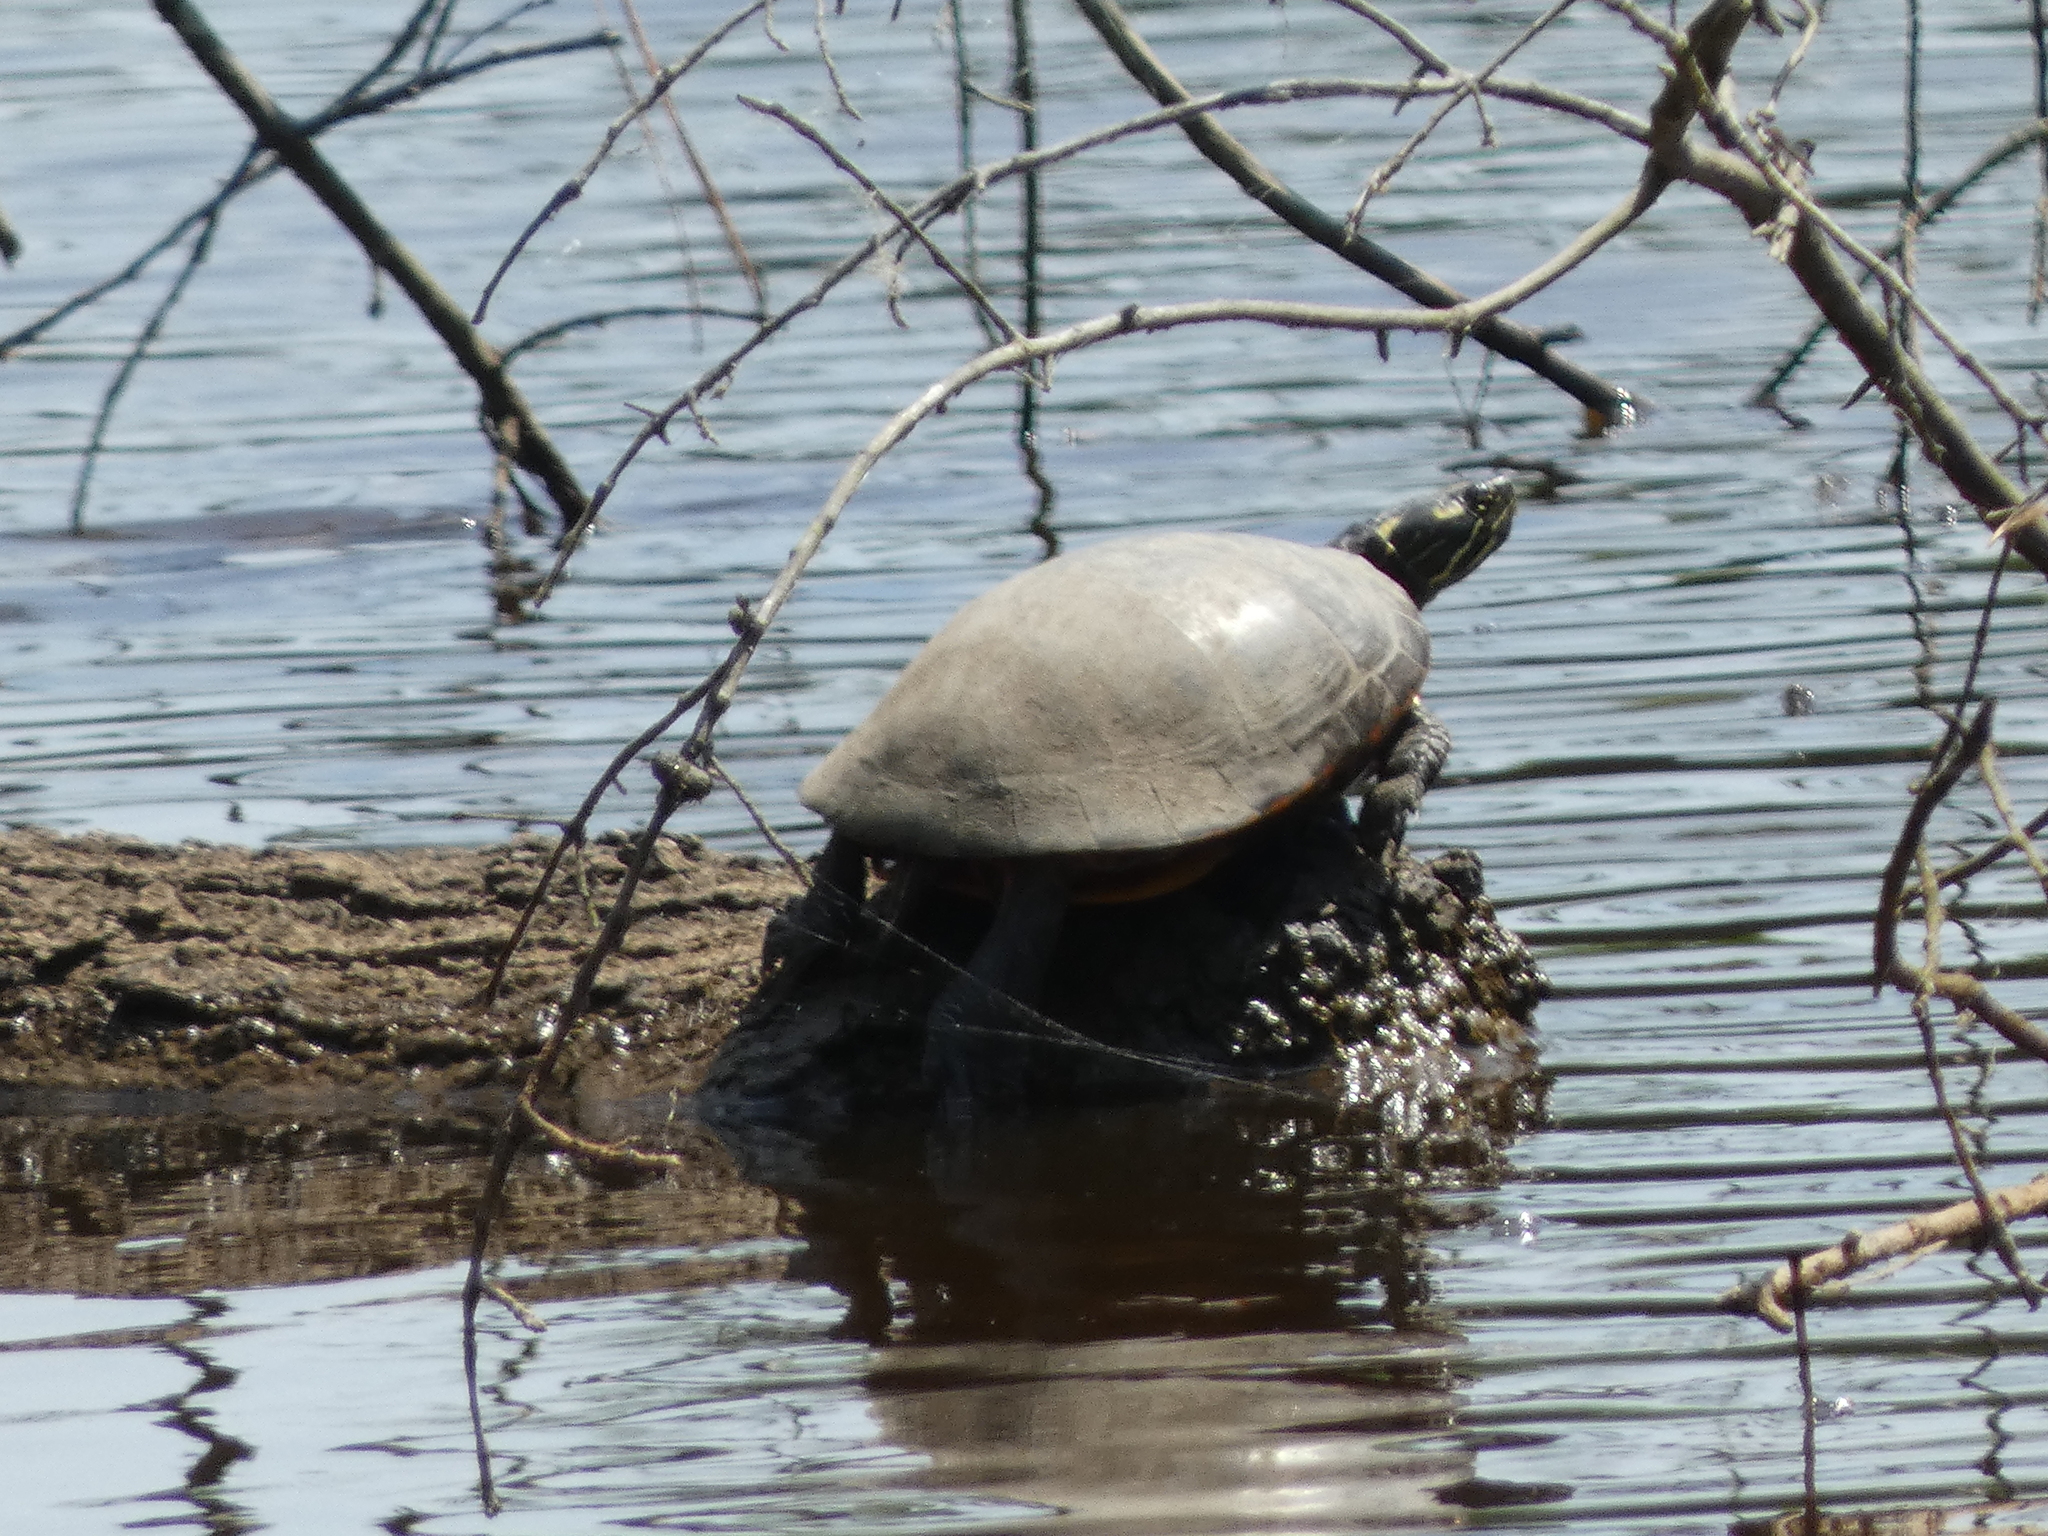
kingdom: Animalia
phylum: Chordata
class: Testudines
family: Emydidae
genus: Chrysemys
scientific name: Chrysemys picta
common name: Painted turtle
